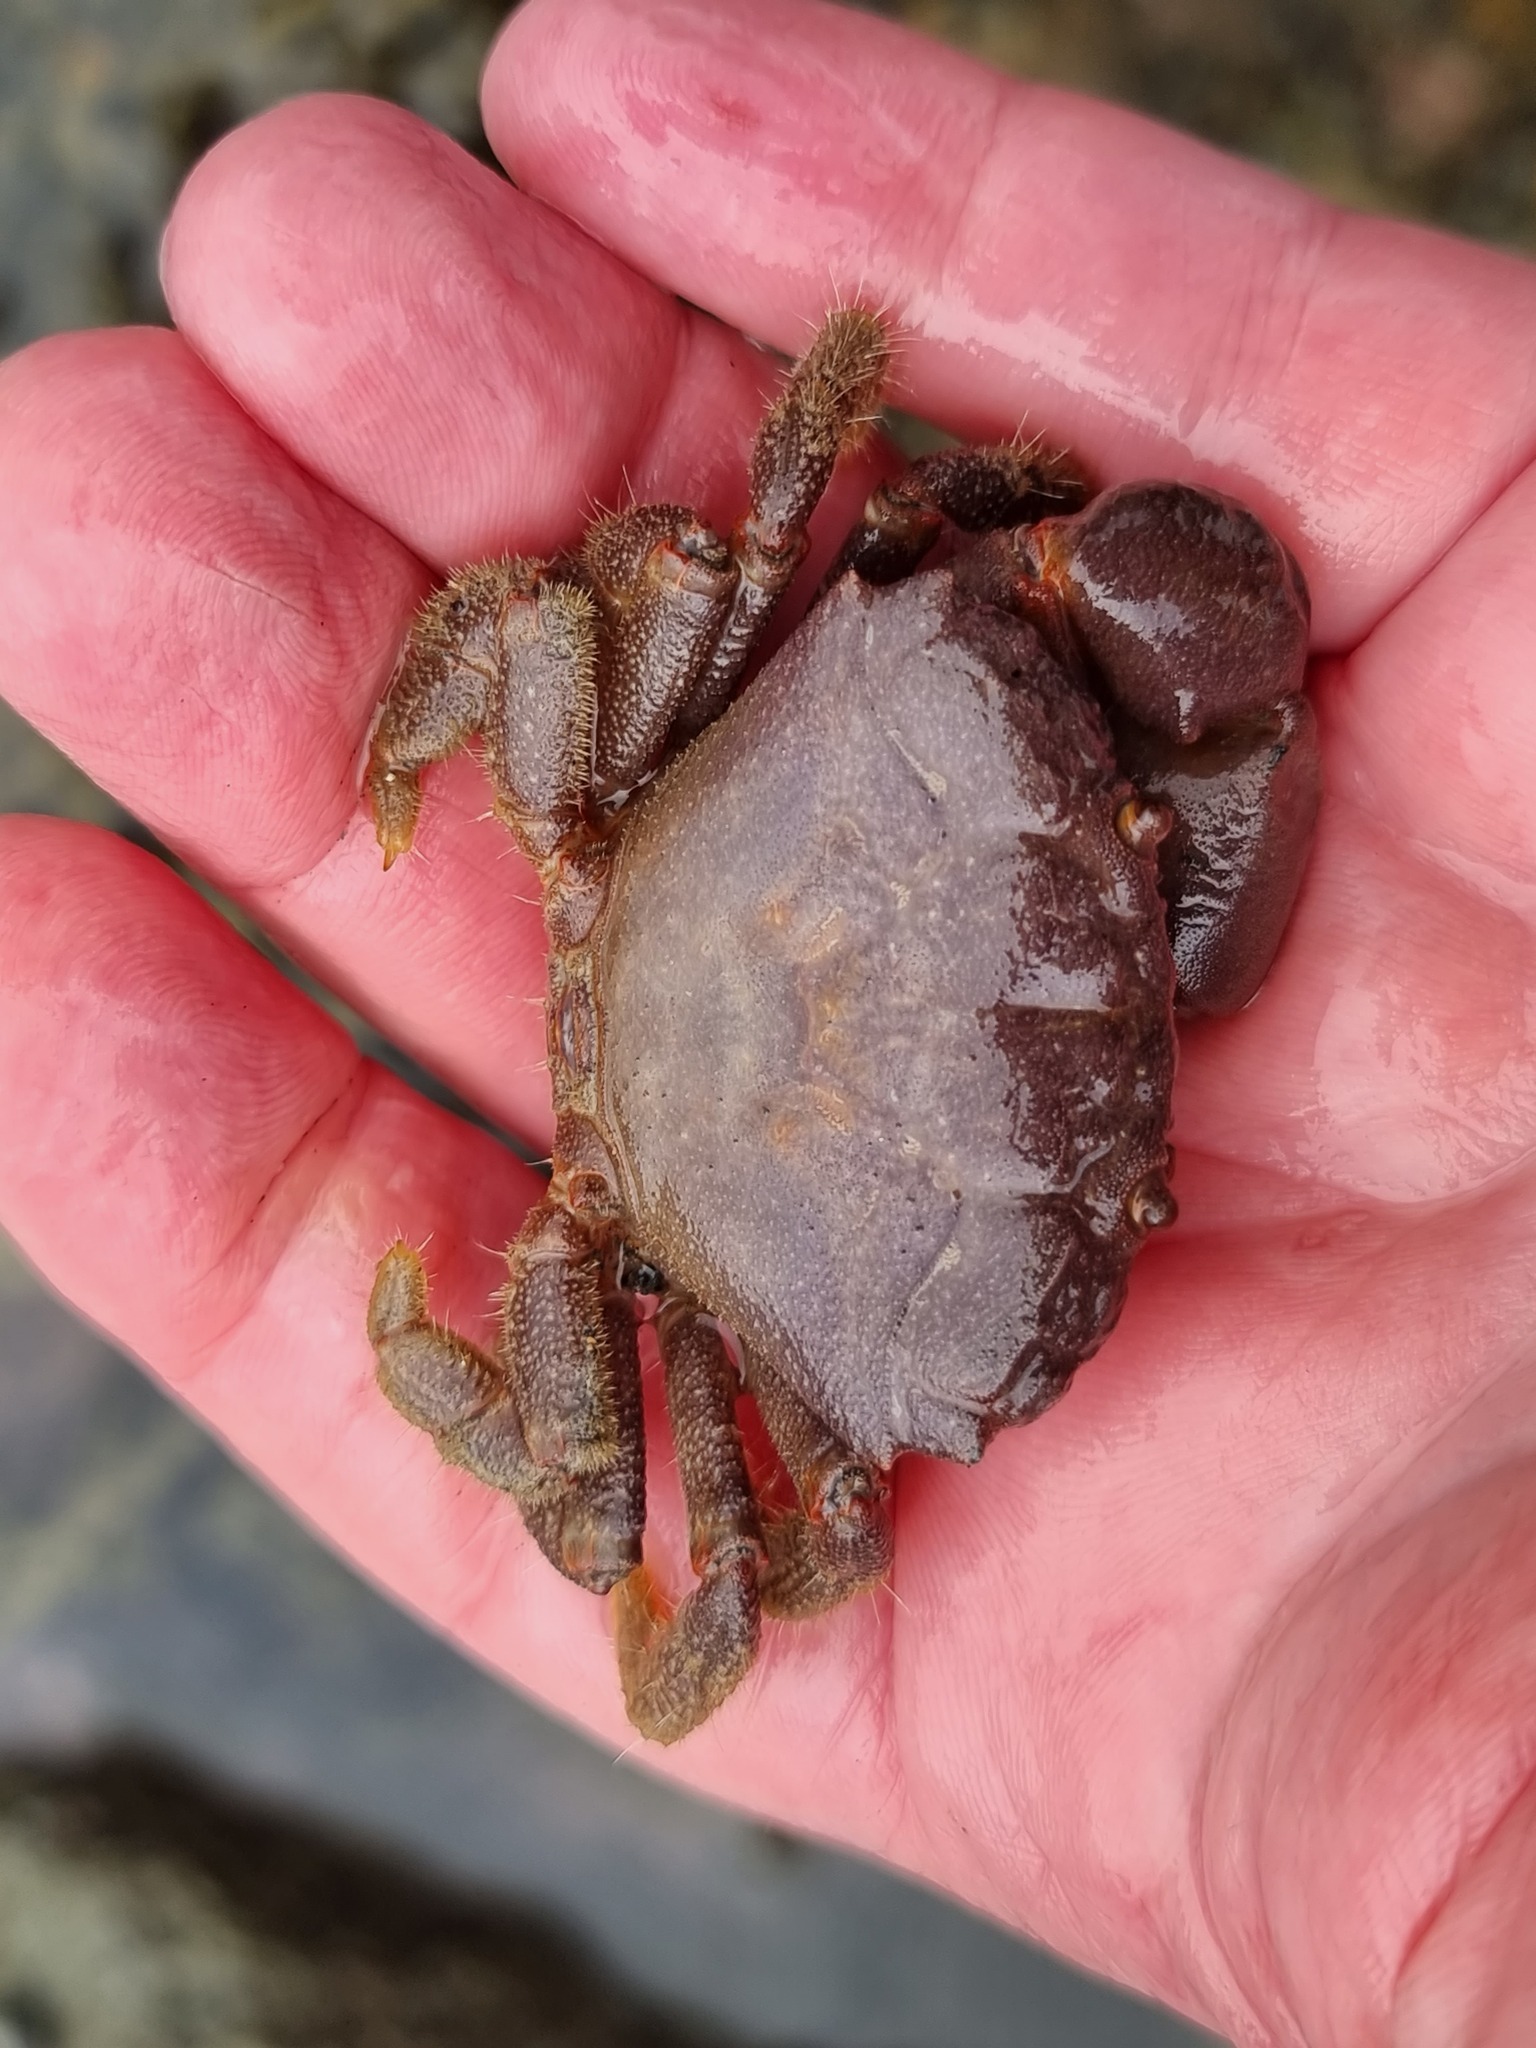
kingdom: Animalia
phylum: Arthropoda
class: Malacostraca
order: Decapoda
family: Oziidae
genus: Ozius
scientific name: Ozius deplanatus
